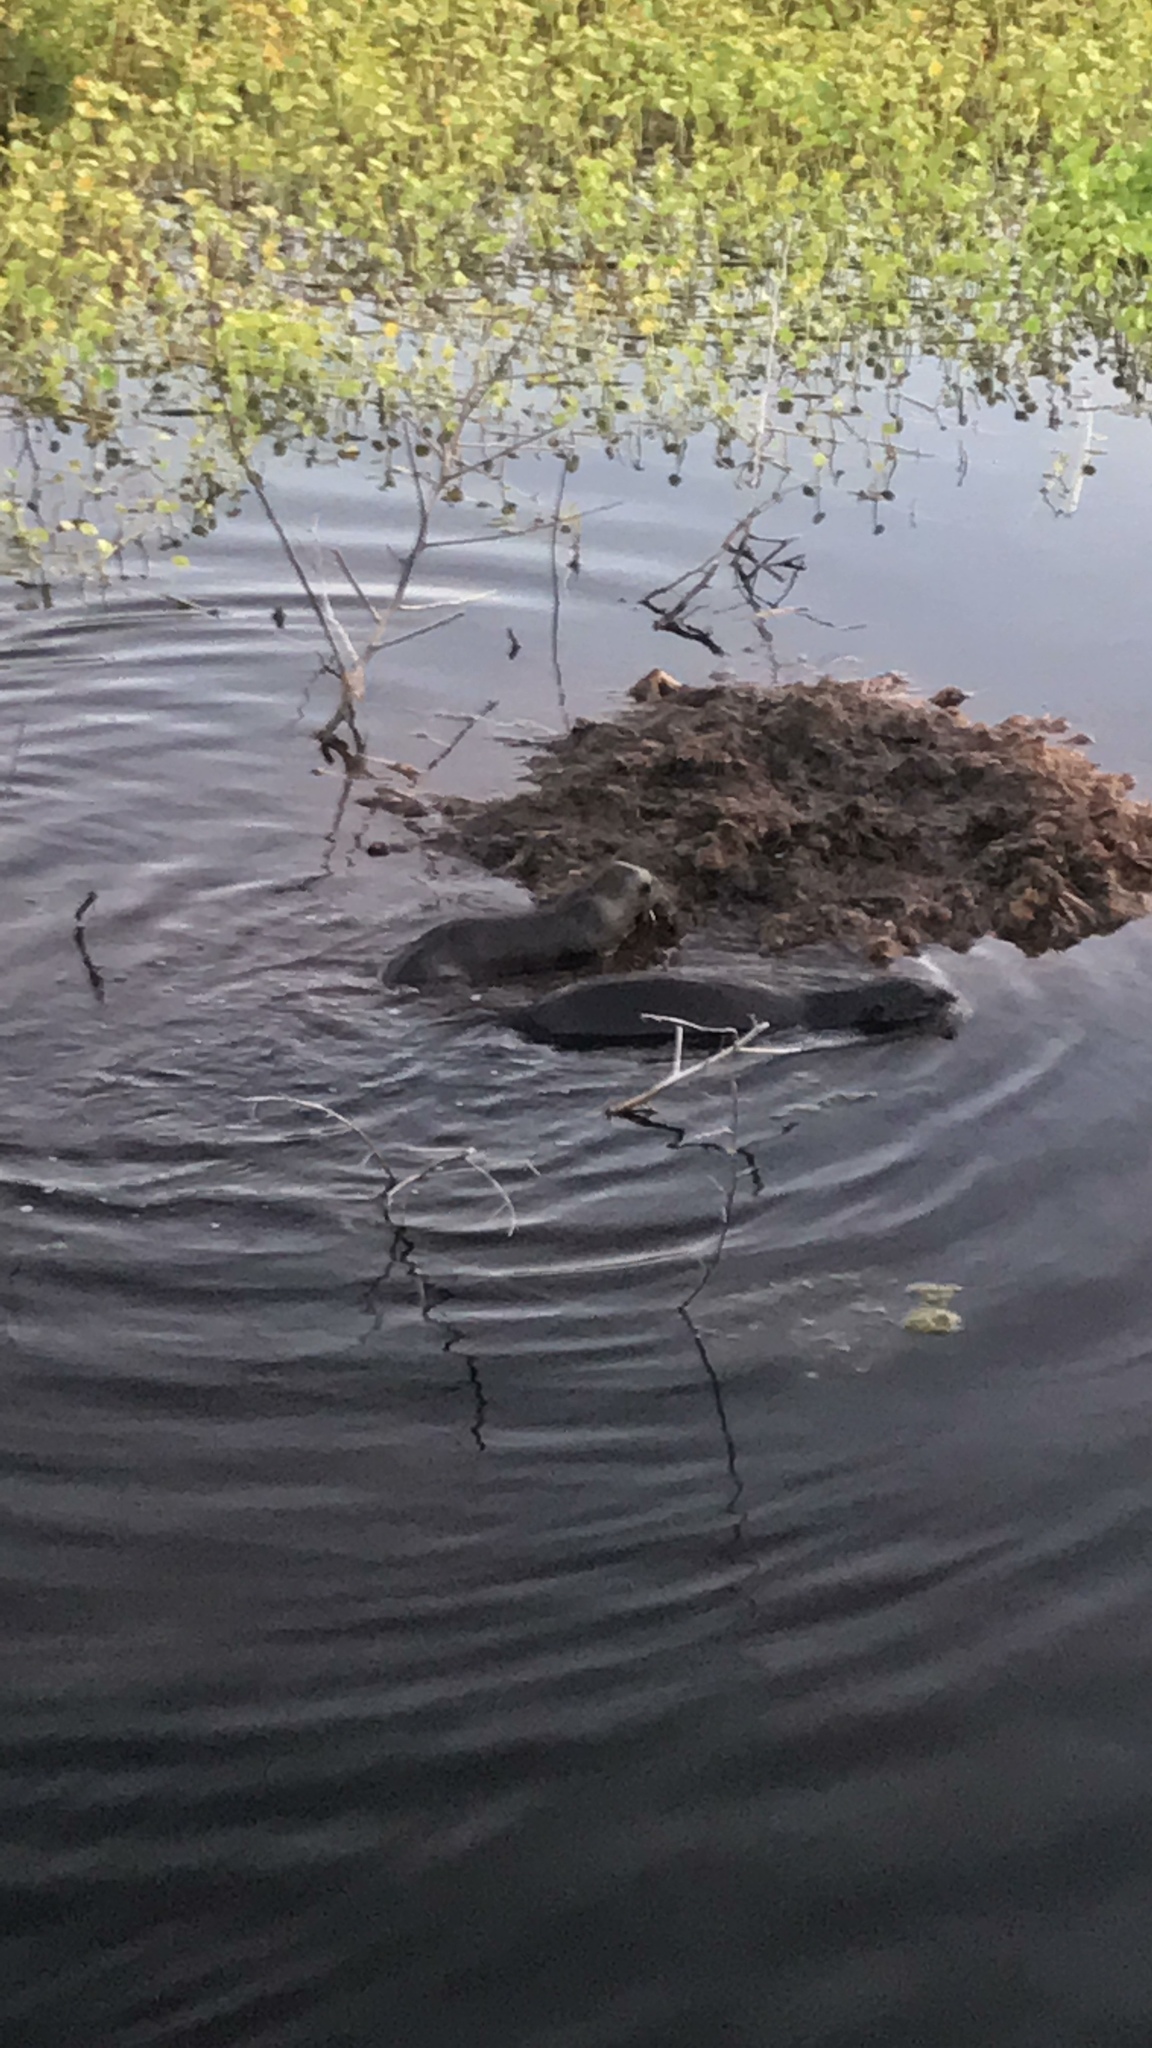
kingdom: Animalia
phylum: Chordata
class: Mammalia
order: Carnivora
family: Mustelidae
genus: Lontra
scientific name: Lontra canadensis
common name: North american river otter
